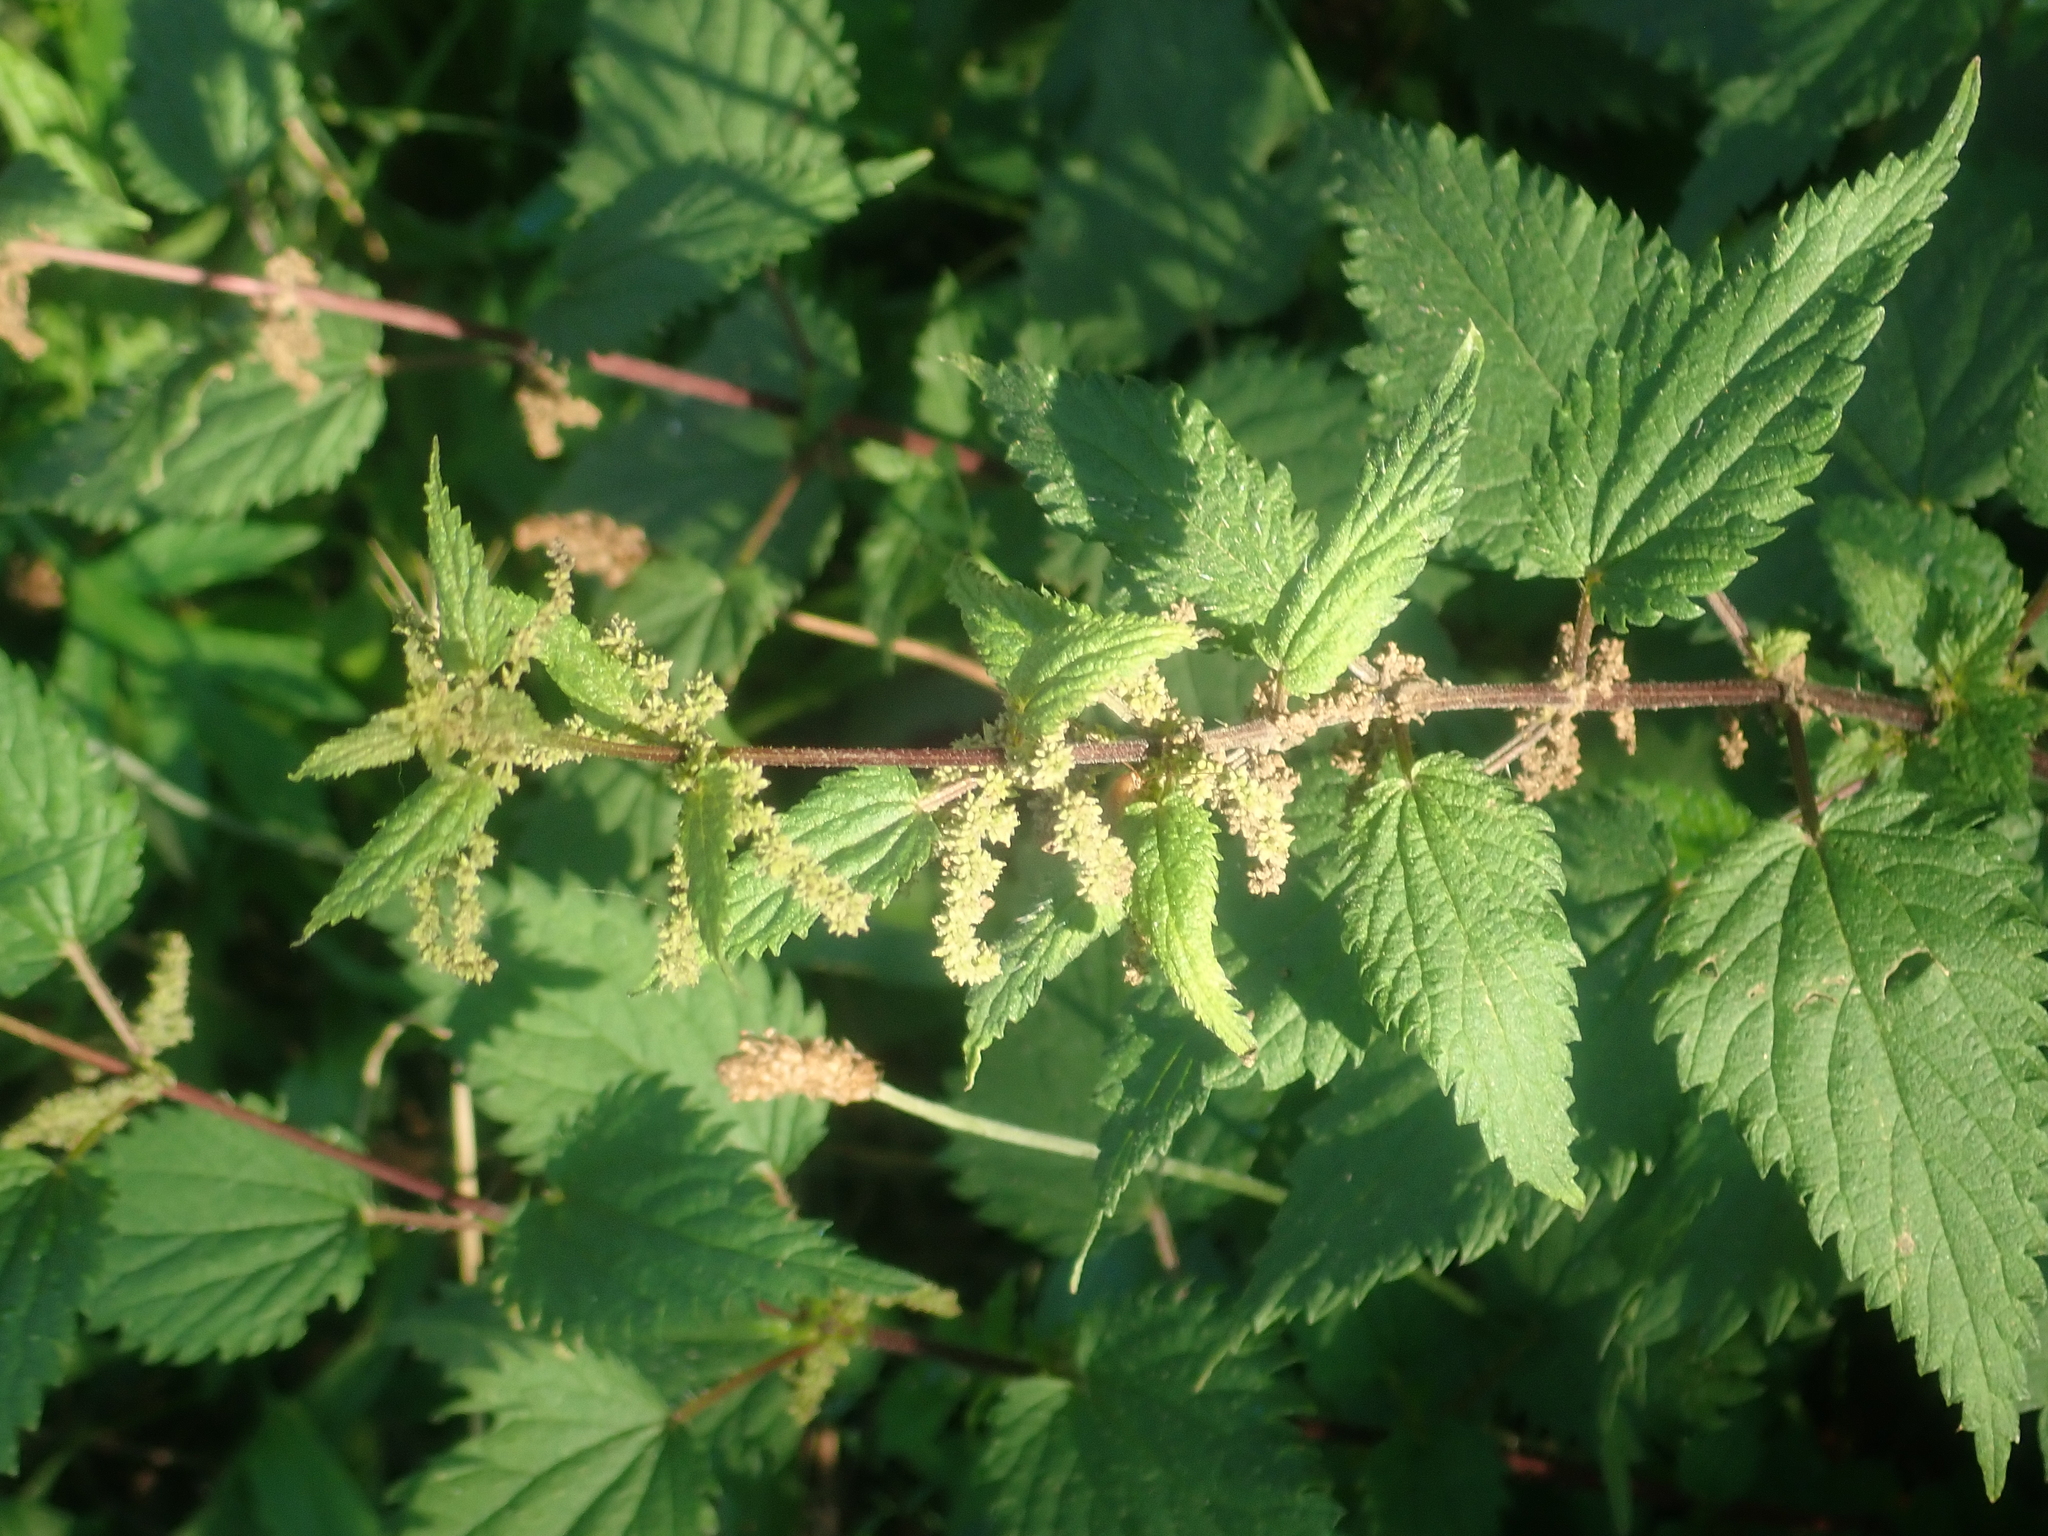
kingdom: Plantae
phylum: Tracheophyta
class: Magnoliopsida
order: Rosales
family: Urticaceae
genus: Urtica
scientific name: Urtica dioica
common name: Common nettle
